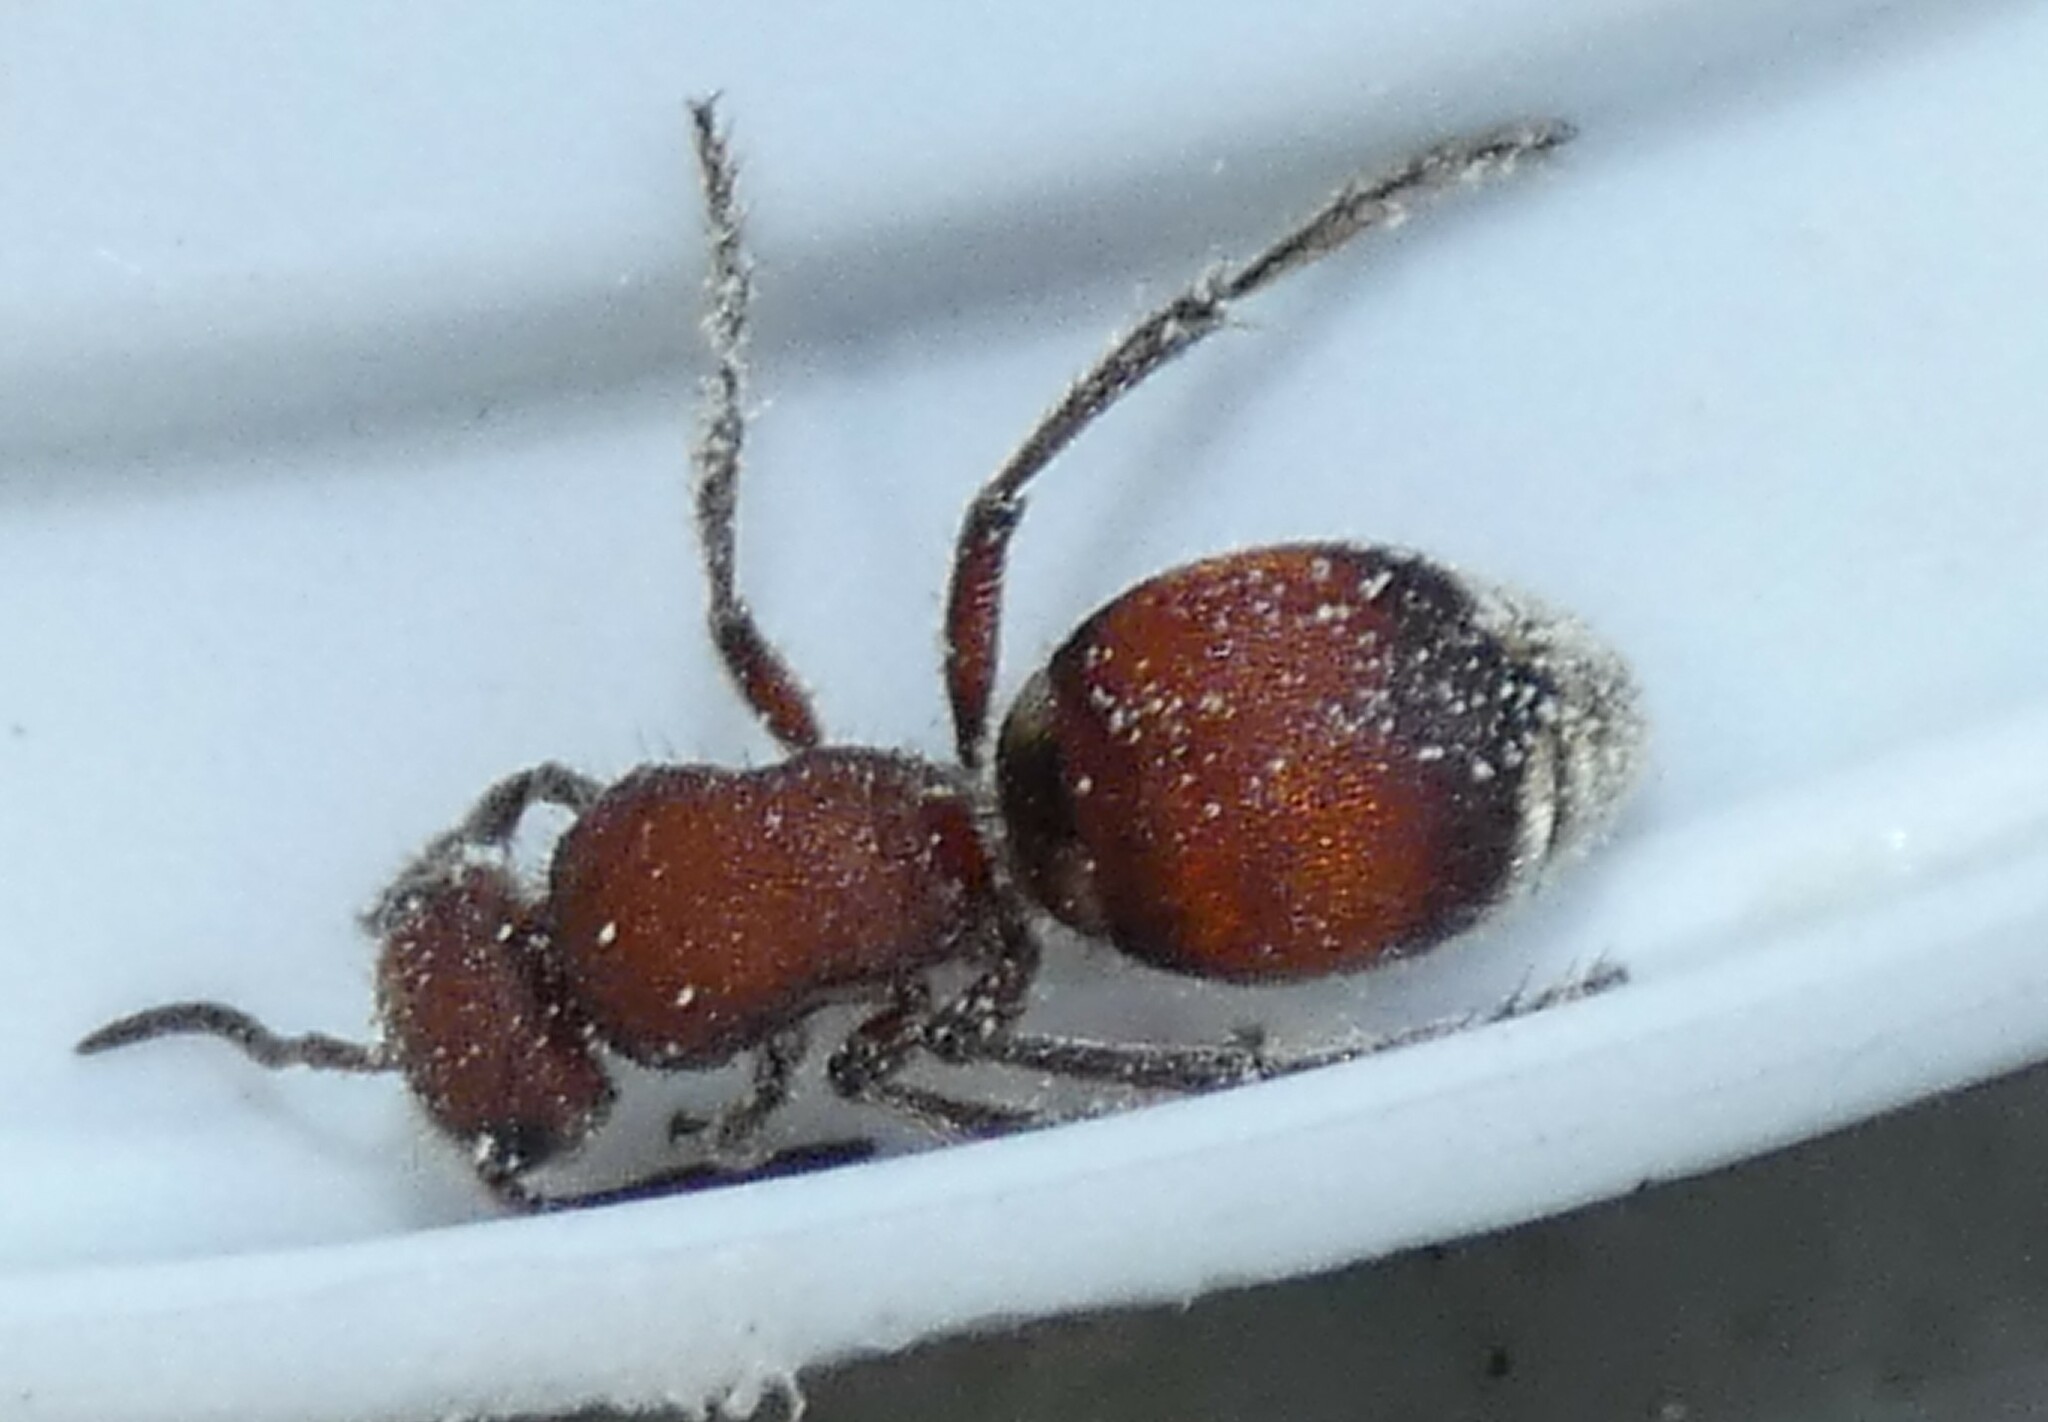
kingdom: Animalia
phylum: Arthropoda
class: Insecta
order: Hymenoptera
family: Mutillidae
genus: Pseudomethoca
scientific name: Pseudomethoca sanbornii
